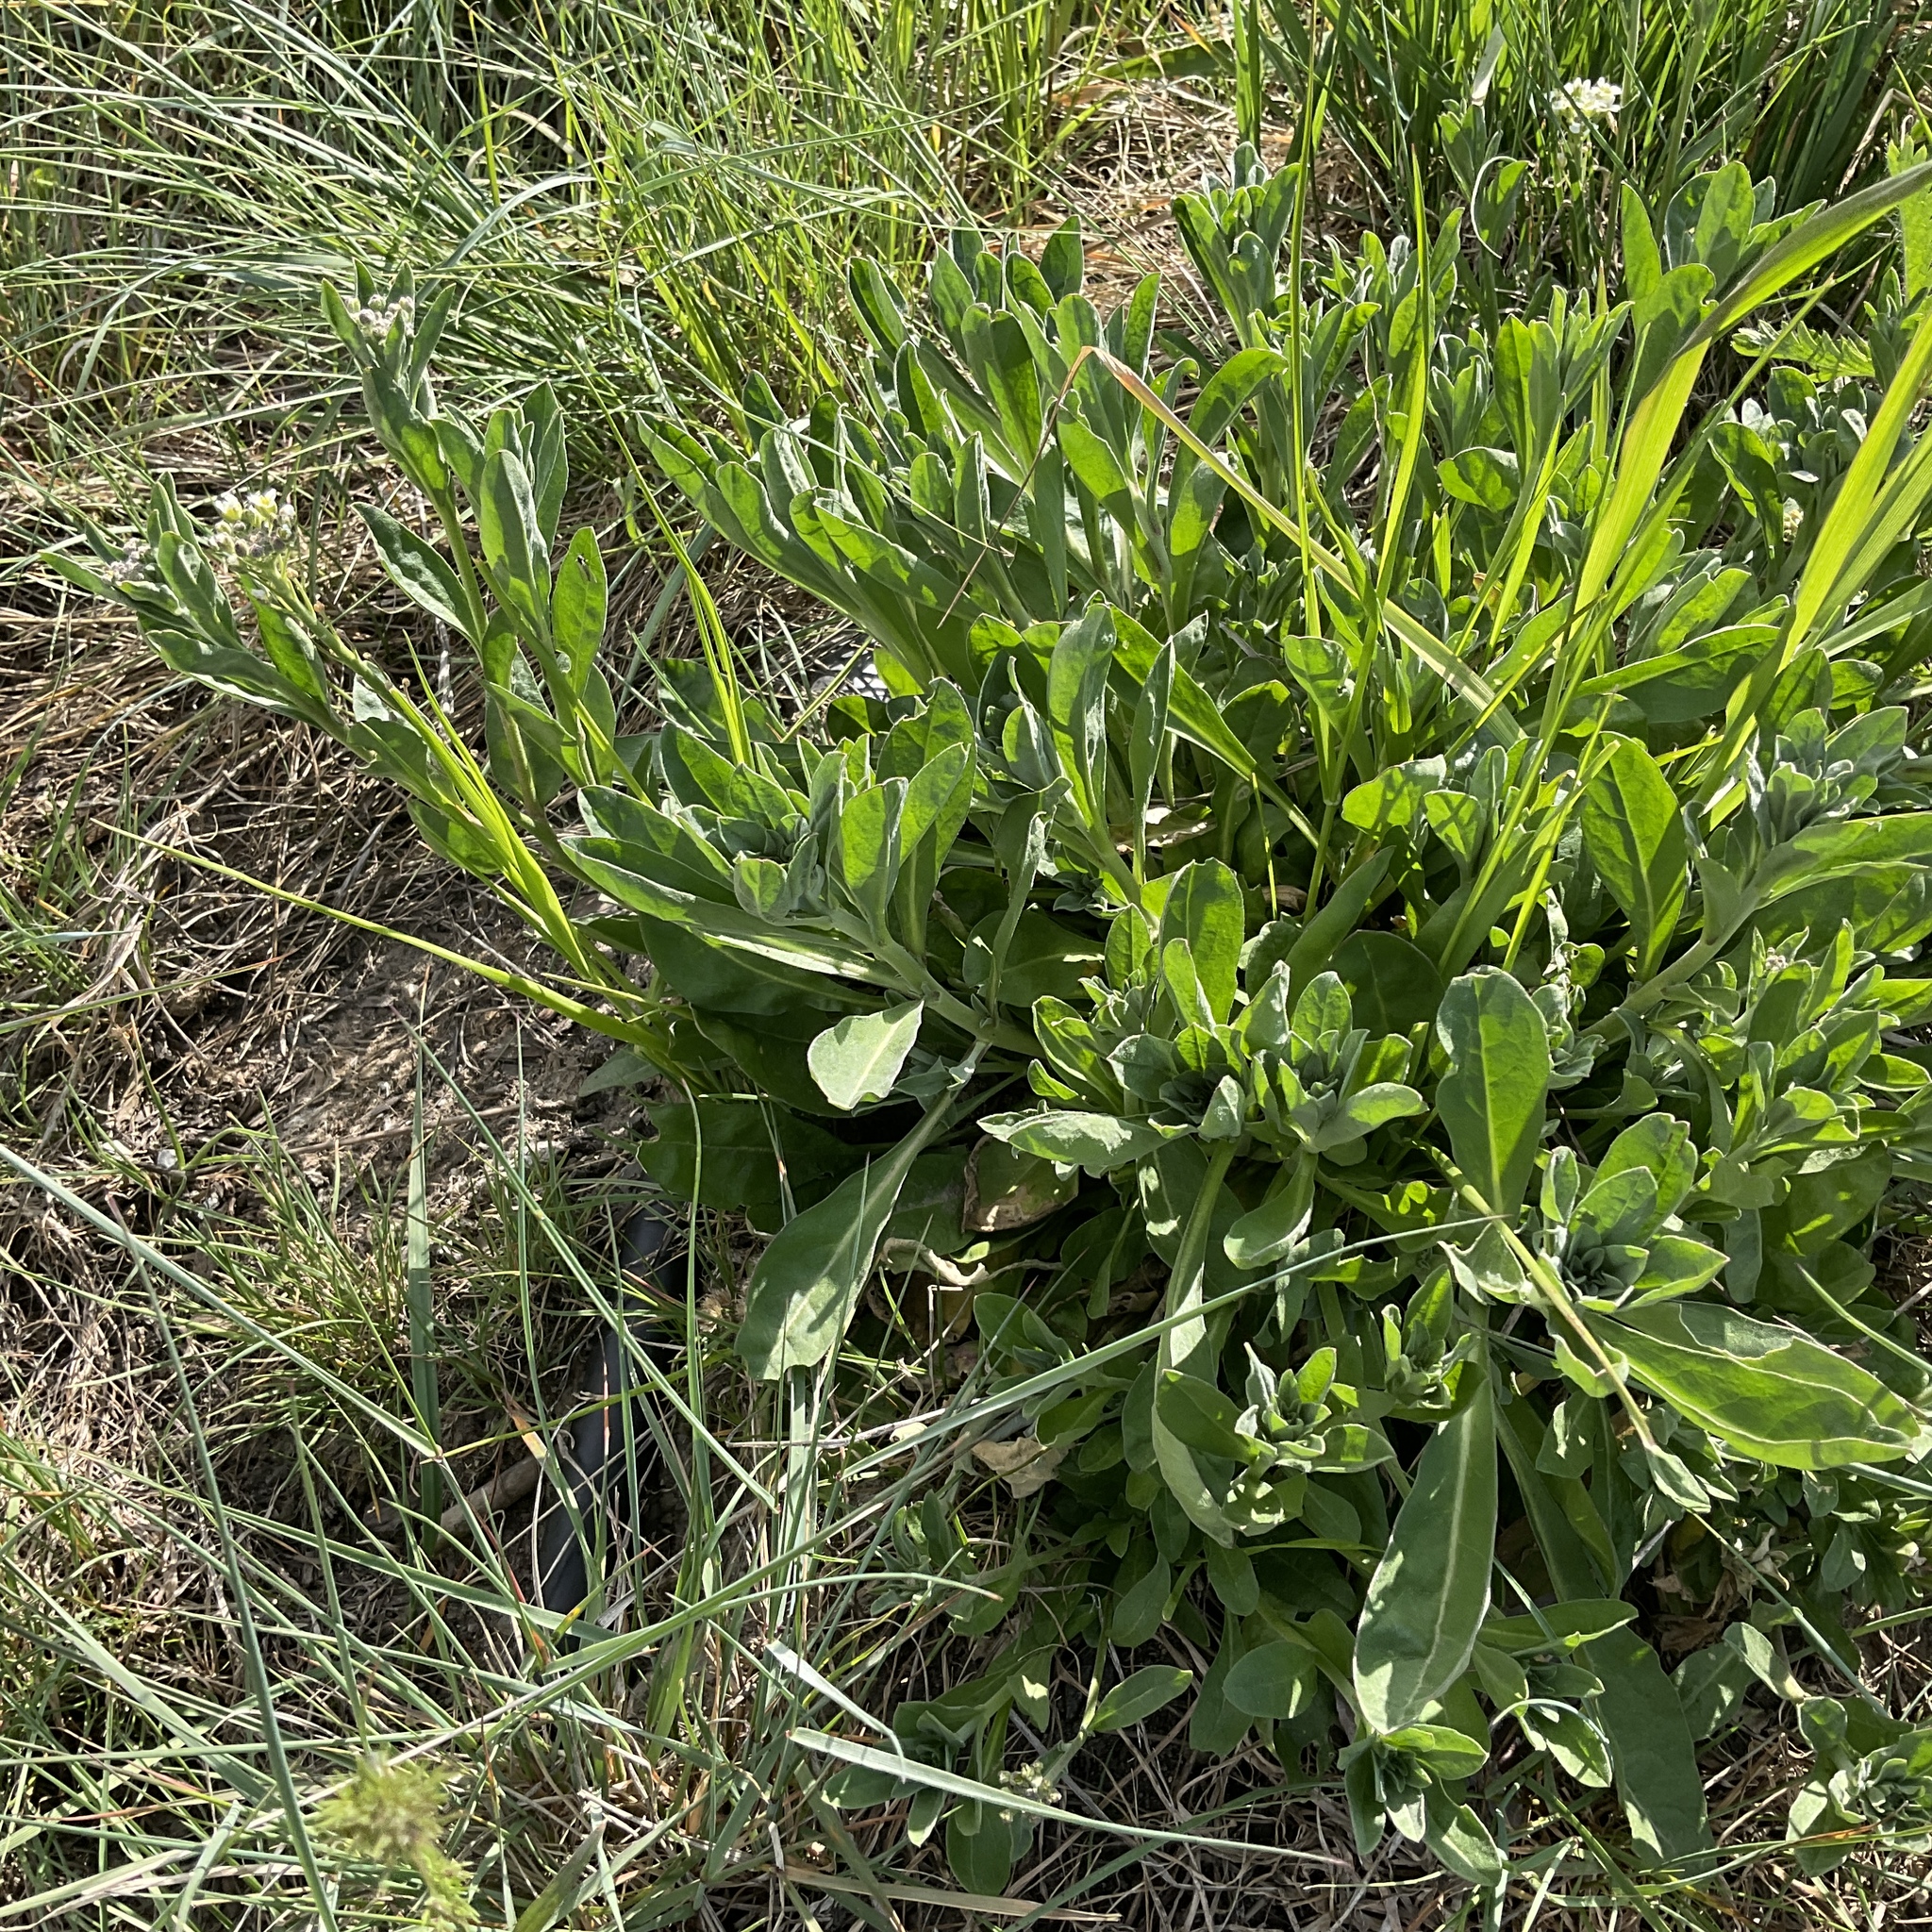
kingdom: Plantae
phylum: Tracheophyta
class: Magnoliopsida
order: Brassicales
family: Brassicaceae
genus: Berteroa
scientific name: Berteroa incana
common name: Hoary alison
